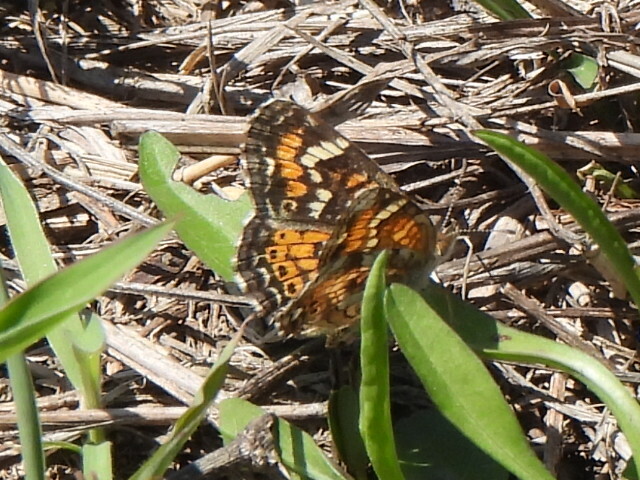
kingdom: Animalia
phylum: Arthropoda
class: Insecta
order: Lepidoptera
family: Nymphalidae
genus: Phyciodes
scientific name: Phyciodes phaon
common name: Phaon crescent
